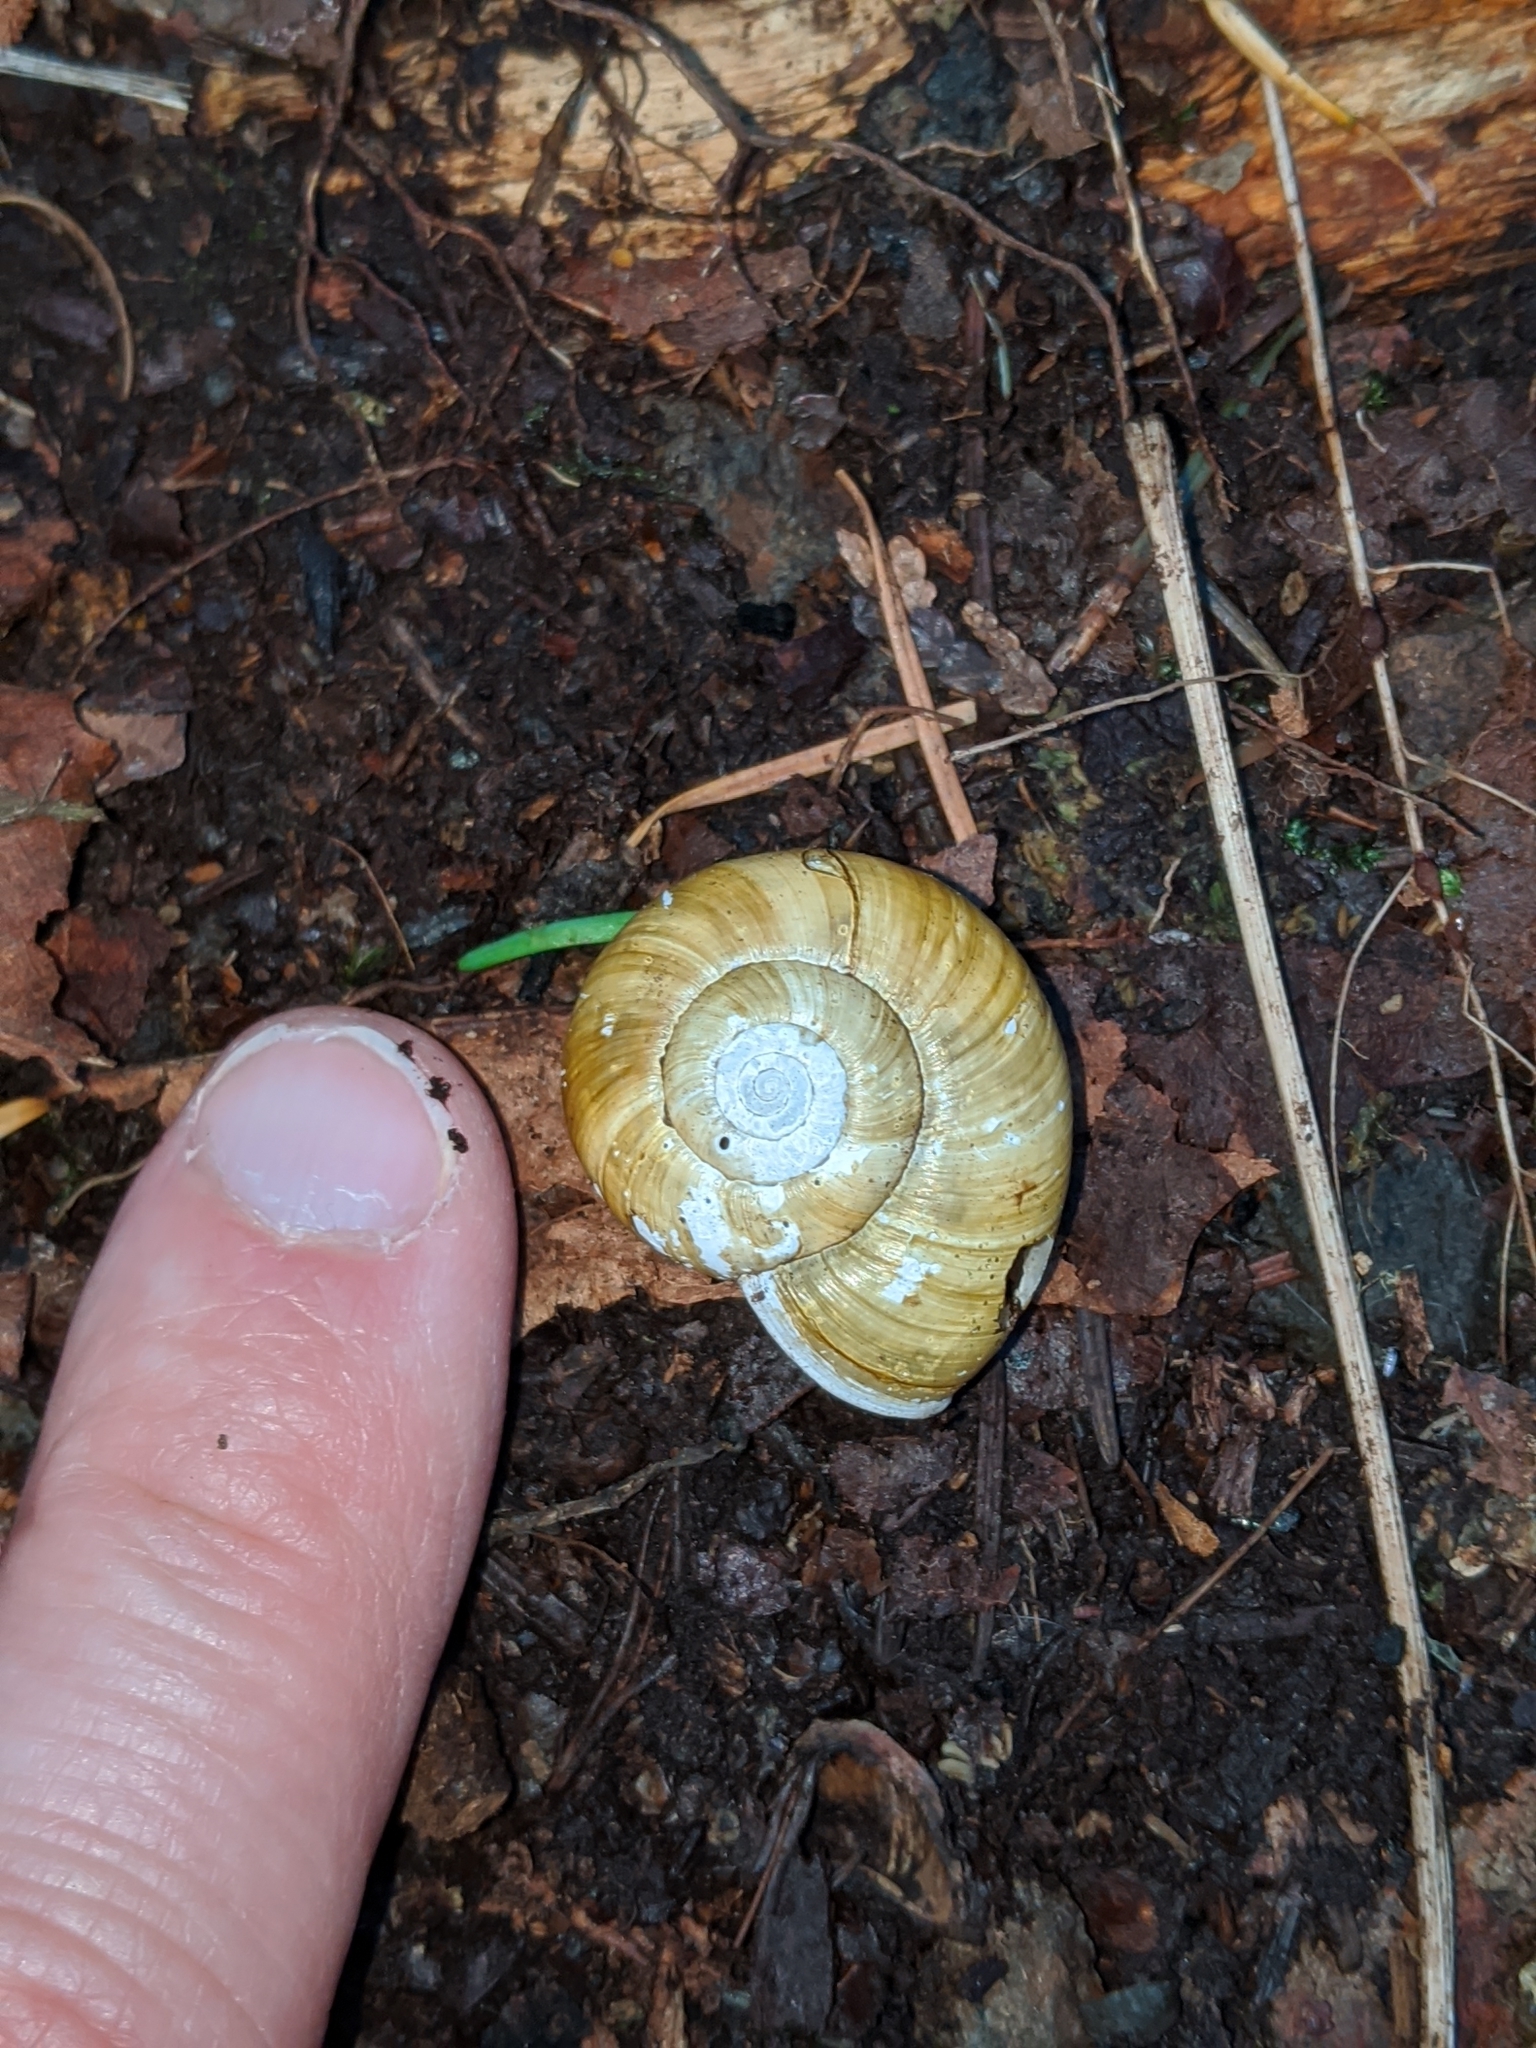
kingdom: Animalia
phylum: Mollusca
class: Gastropoda
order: Stylommatophora
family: Haplotrematidae
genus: Haplotrema
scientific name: Haplotrema vancouverense
